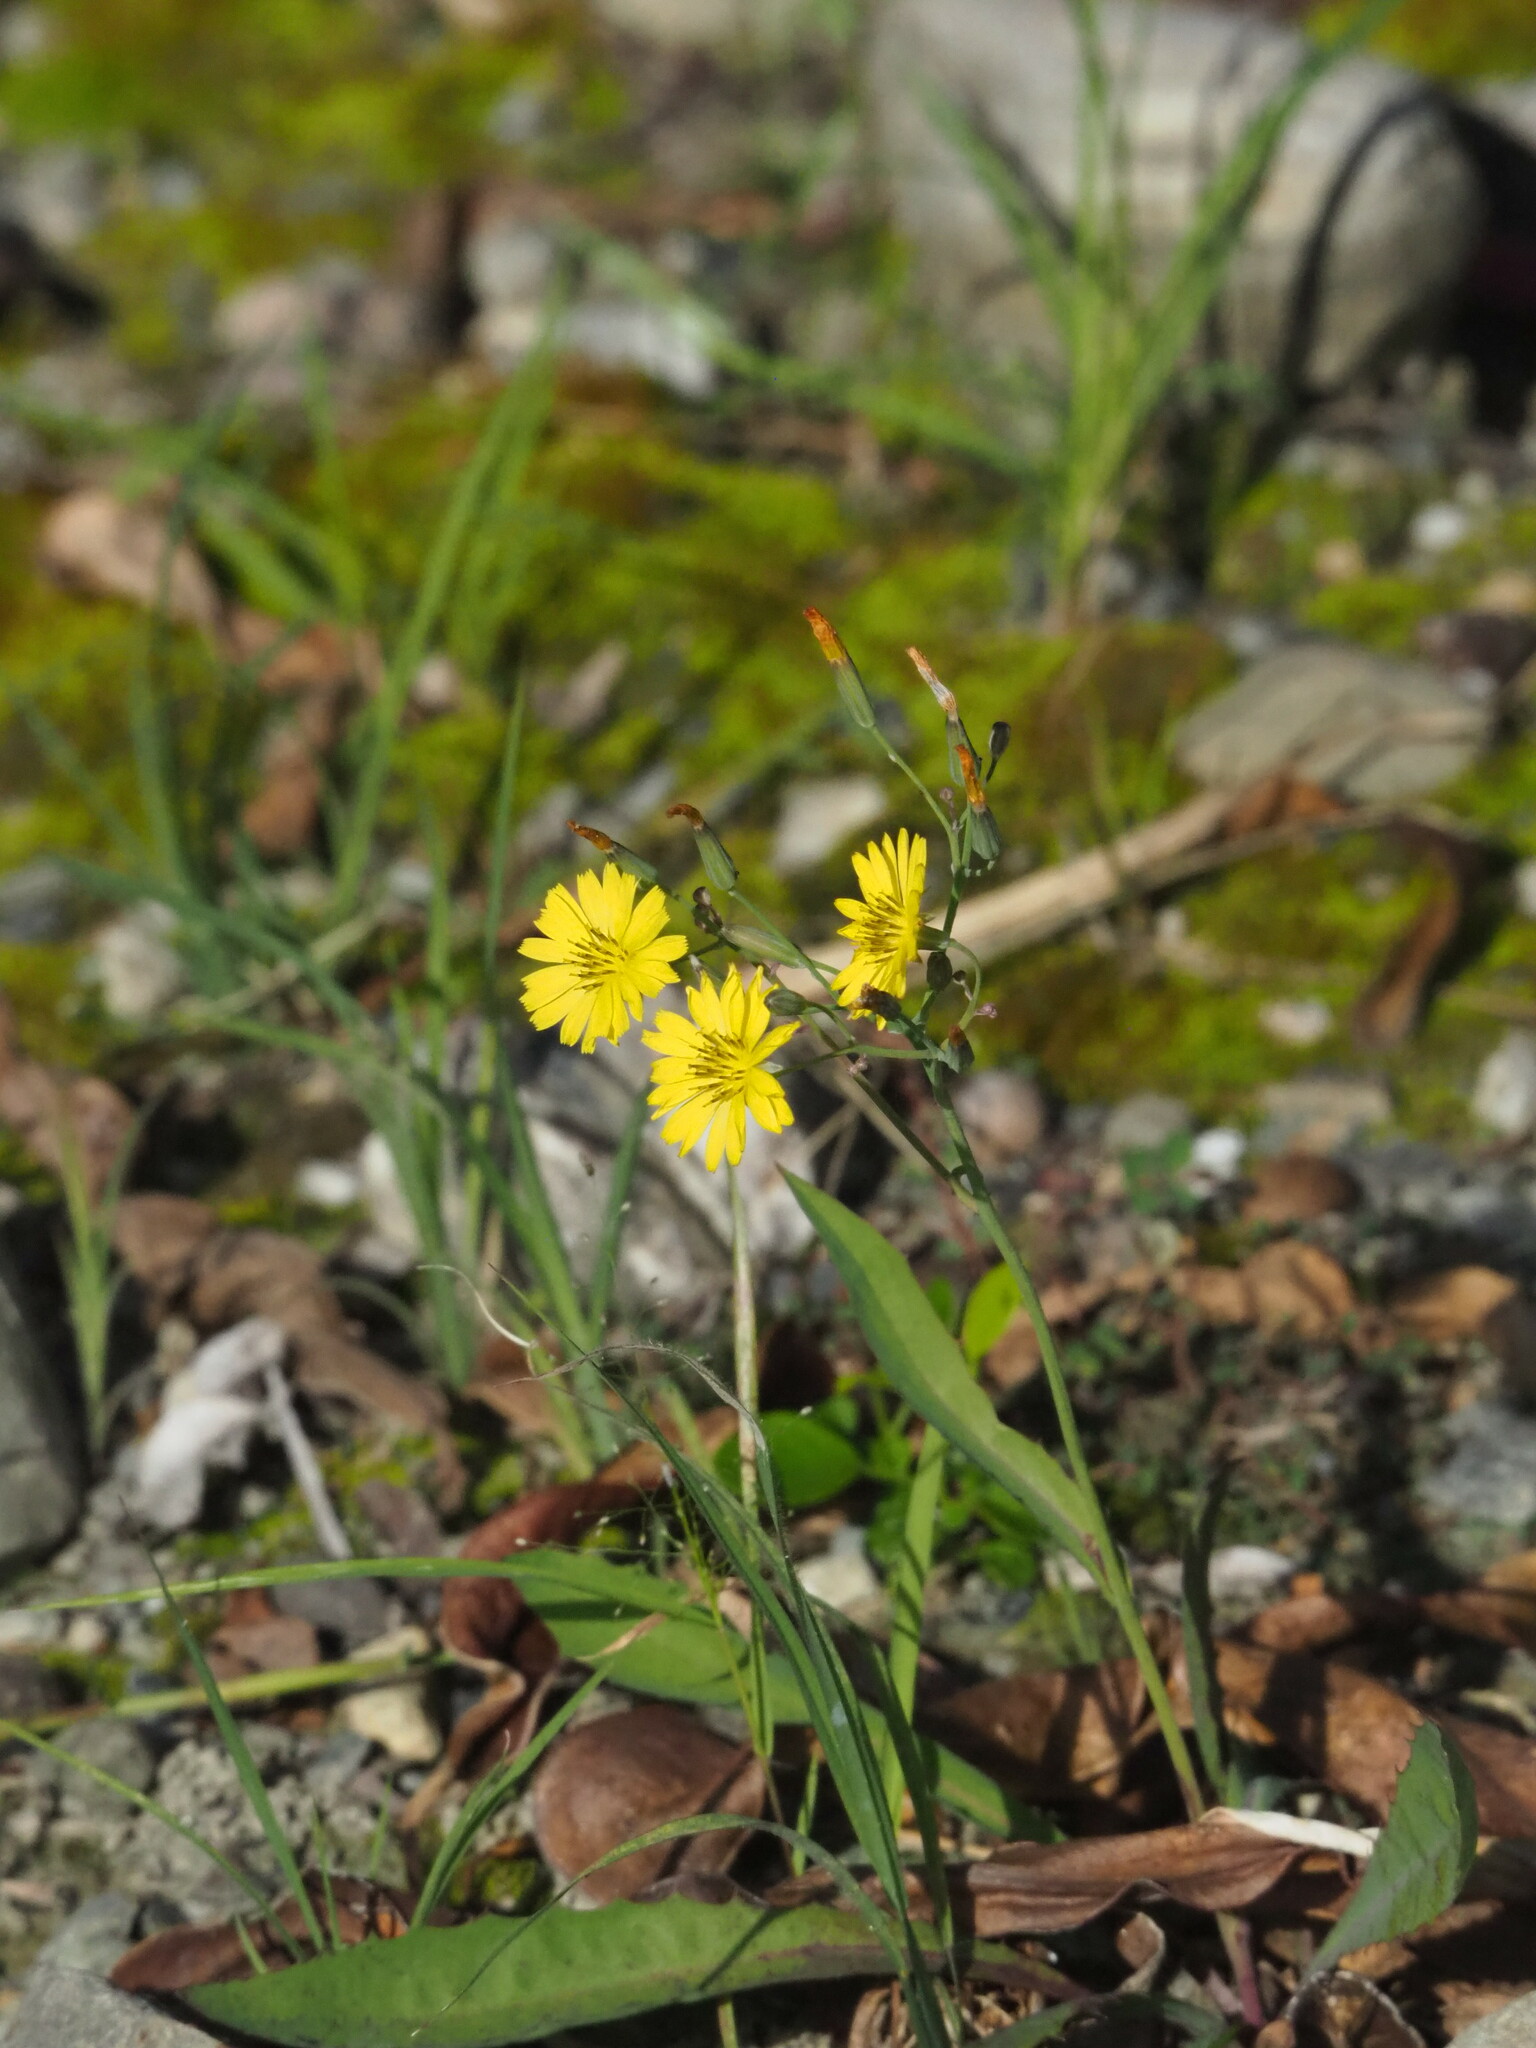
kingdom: Plantae
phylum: Tracheophyta
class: Magnoliopsida
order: Asterales
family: Asteraceae
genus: Ixeris
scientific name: Ixeris chinensis
